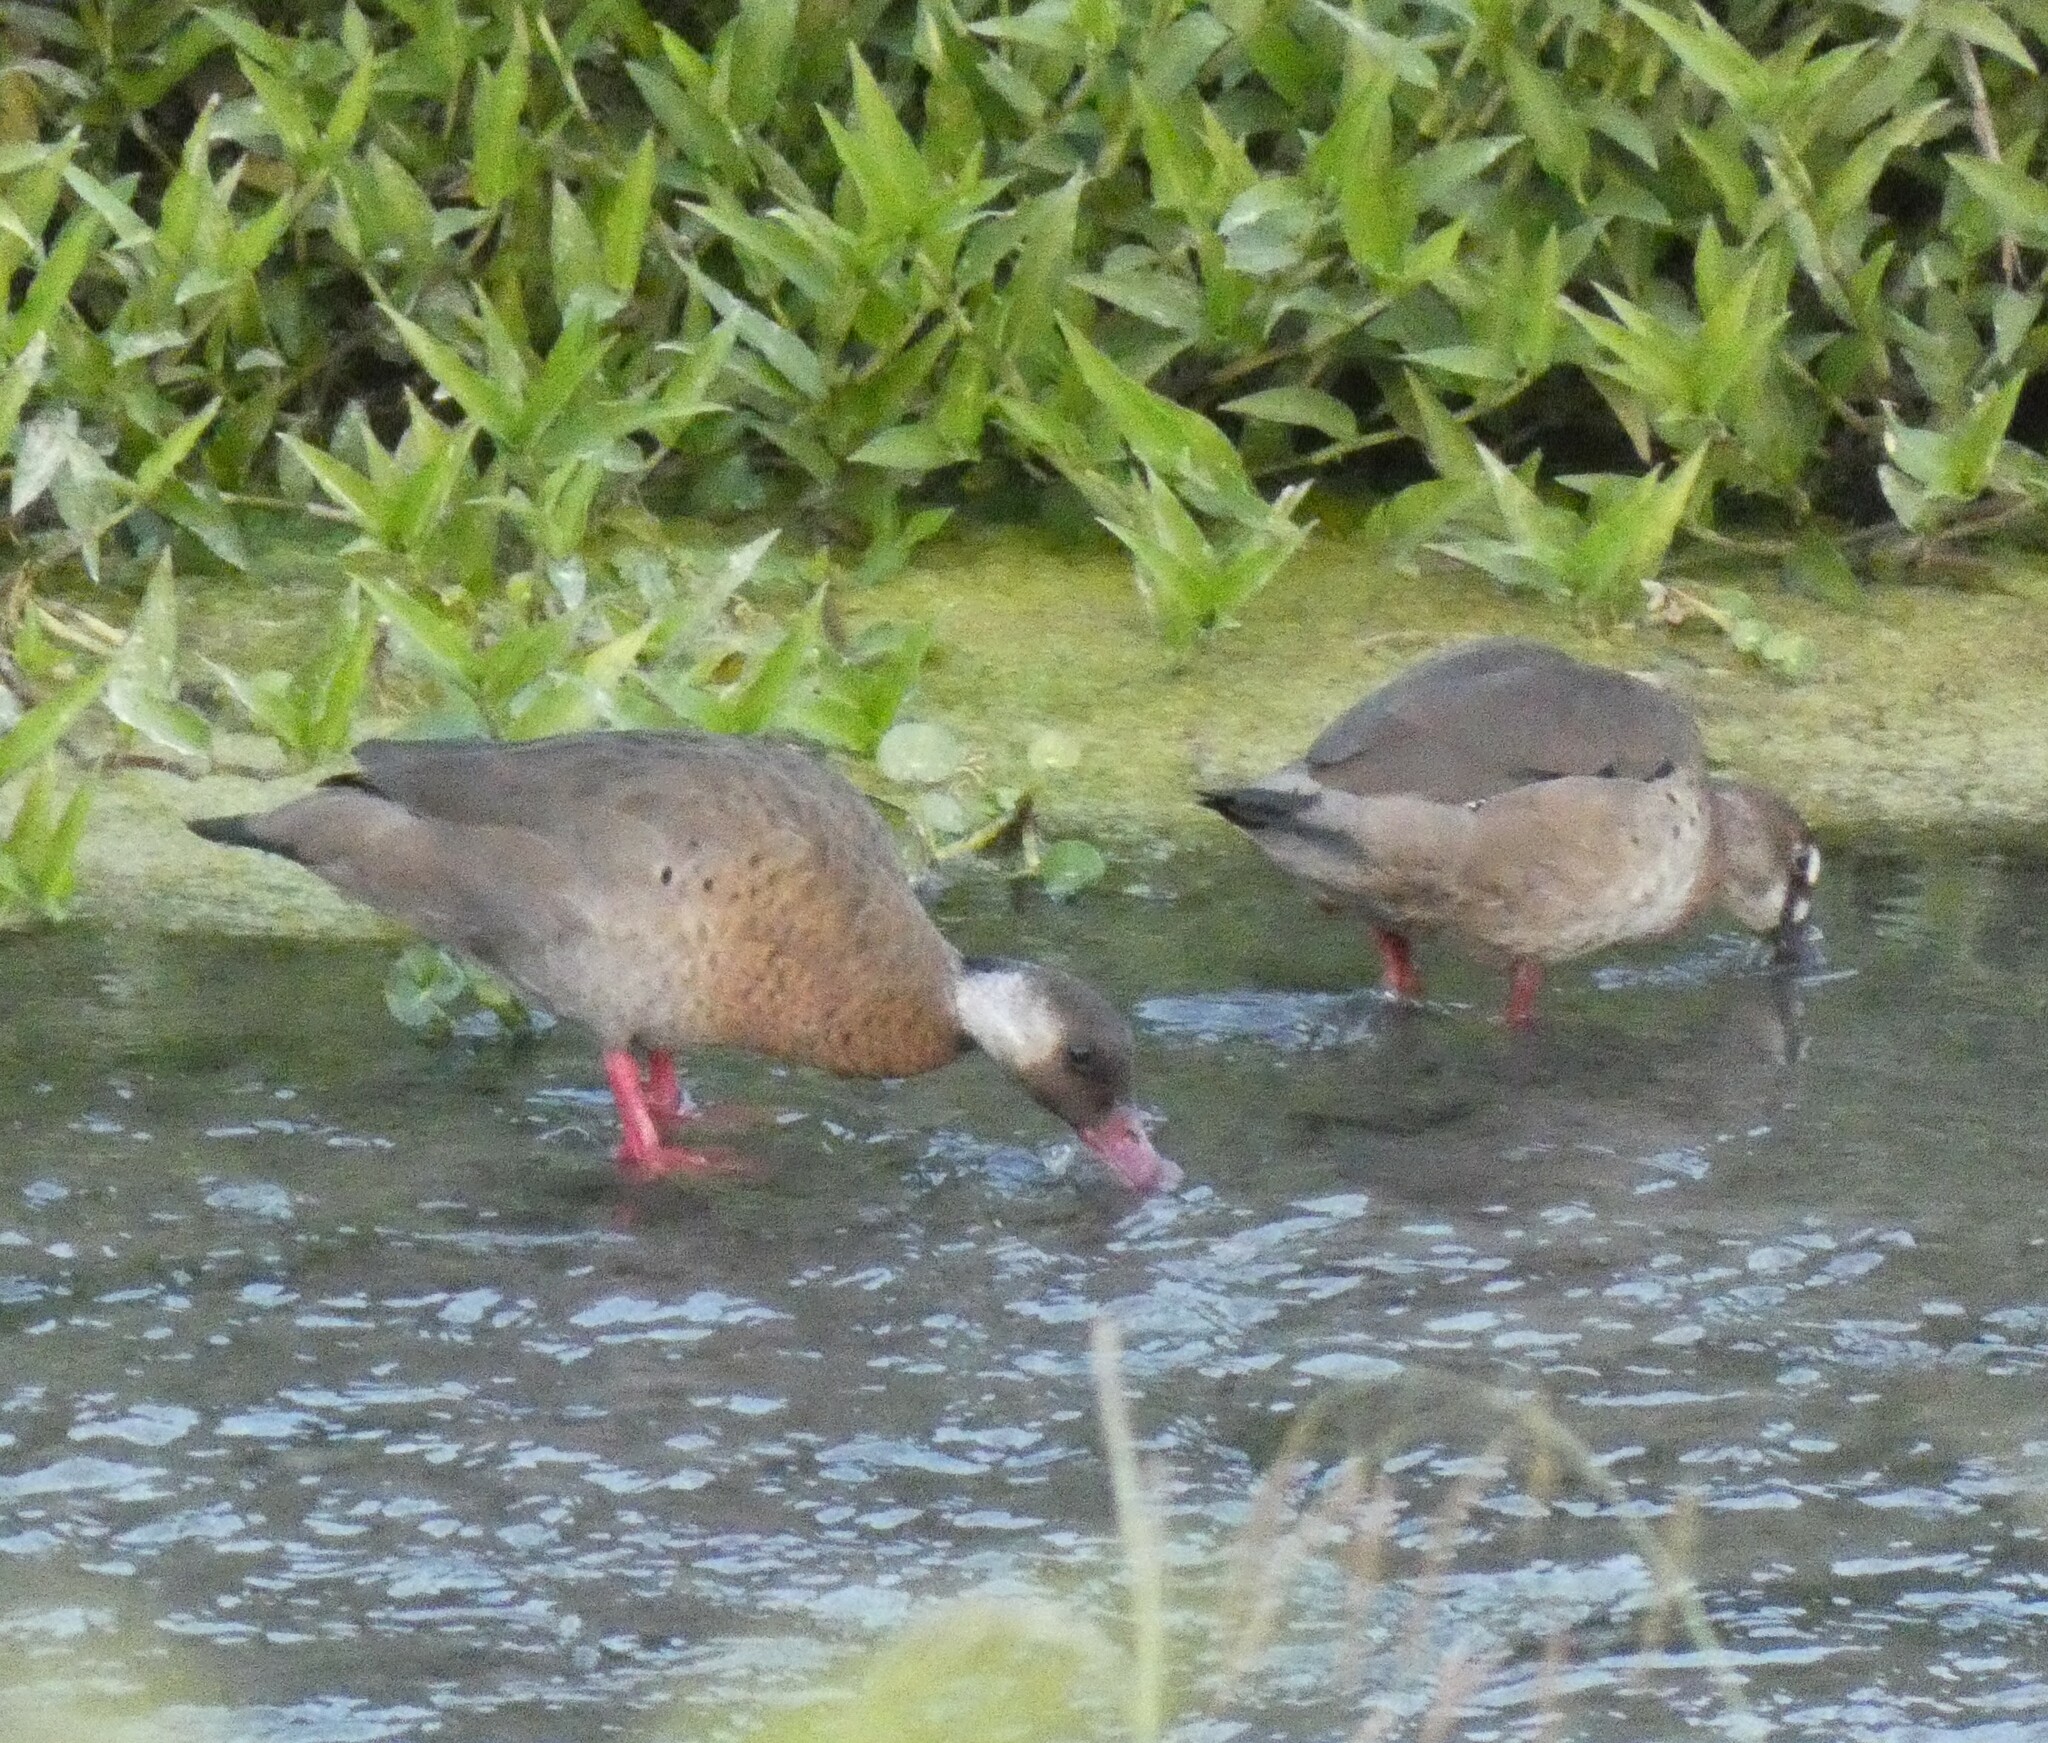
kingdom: Animalia
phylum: Chordata
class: Aves
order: Anseriformes
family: Anatidae
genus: Amazonetta
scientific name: Amazonetta brasiliensis
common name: Brazilian teal
